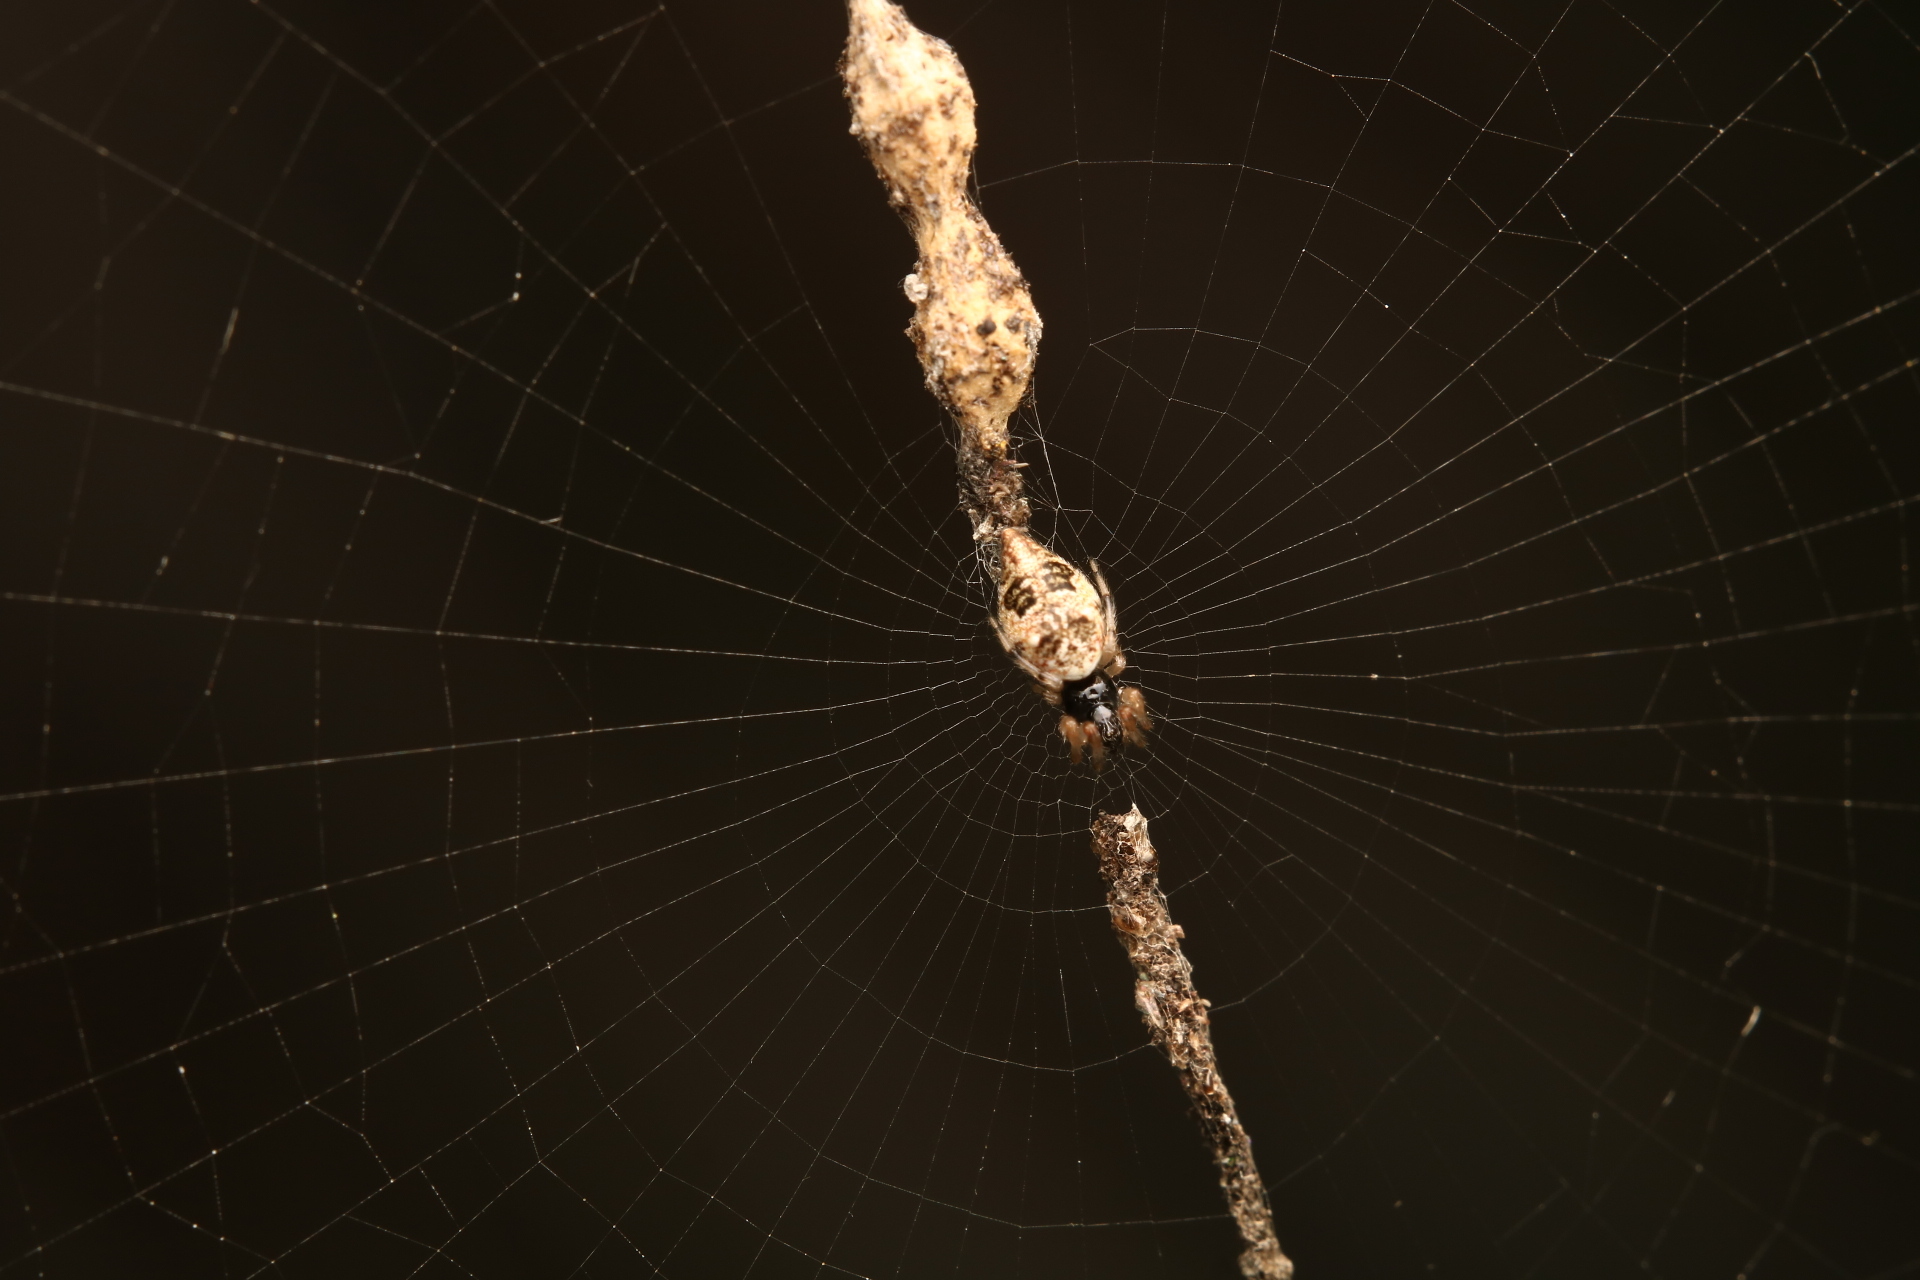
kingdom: Animalia
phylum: Arthropoda
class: Arachnida
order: Araneae
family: Araneidae
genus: Cyclosa
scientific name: Cyclosa turbinata
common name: Orb weavers
